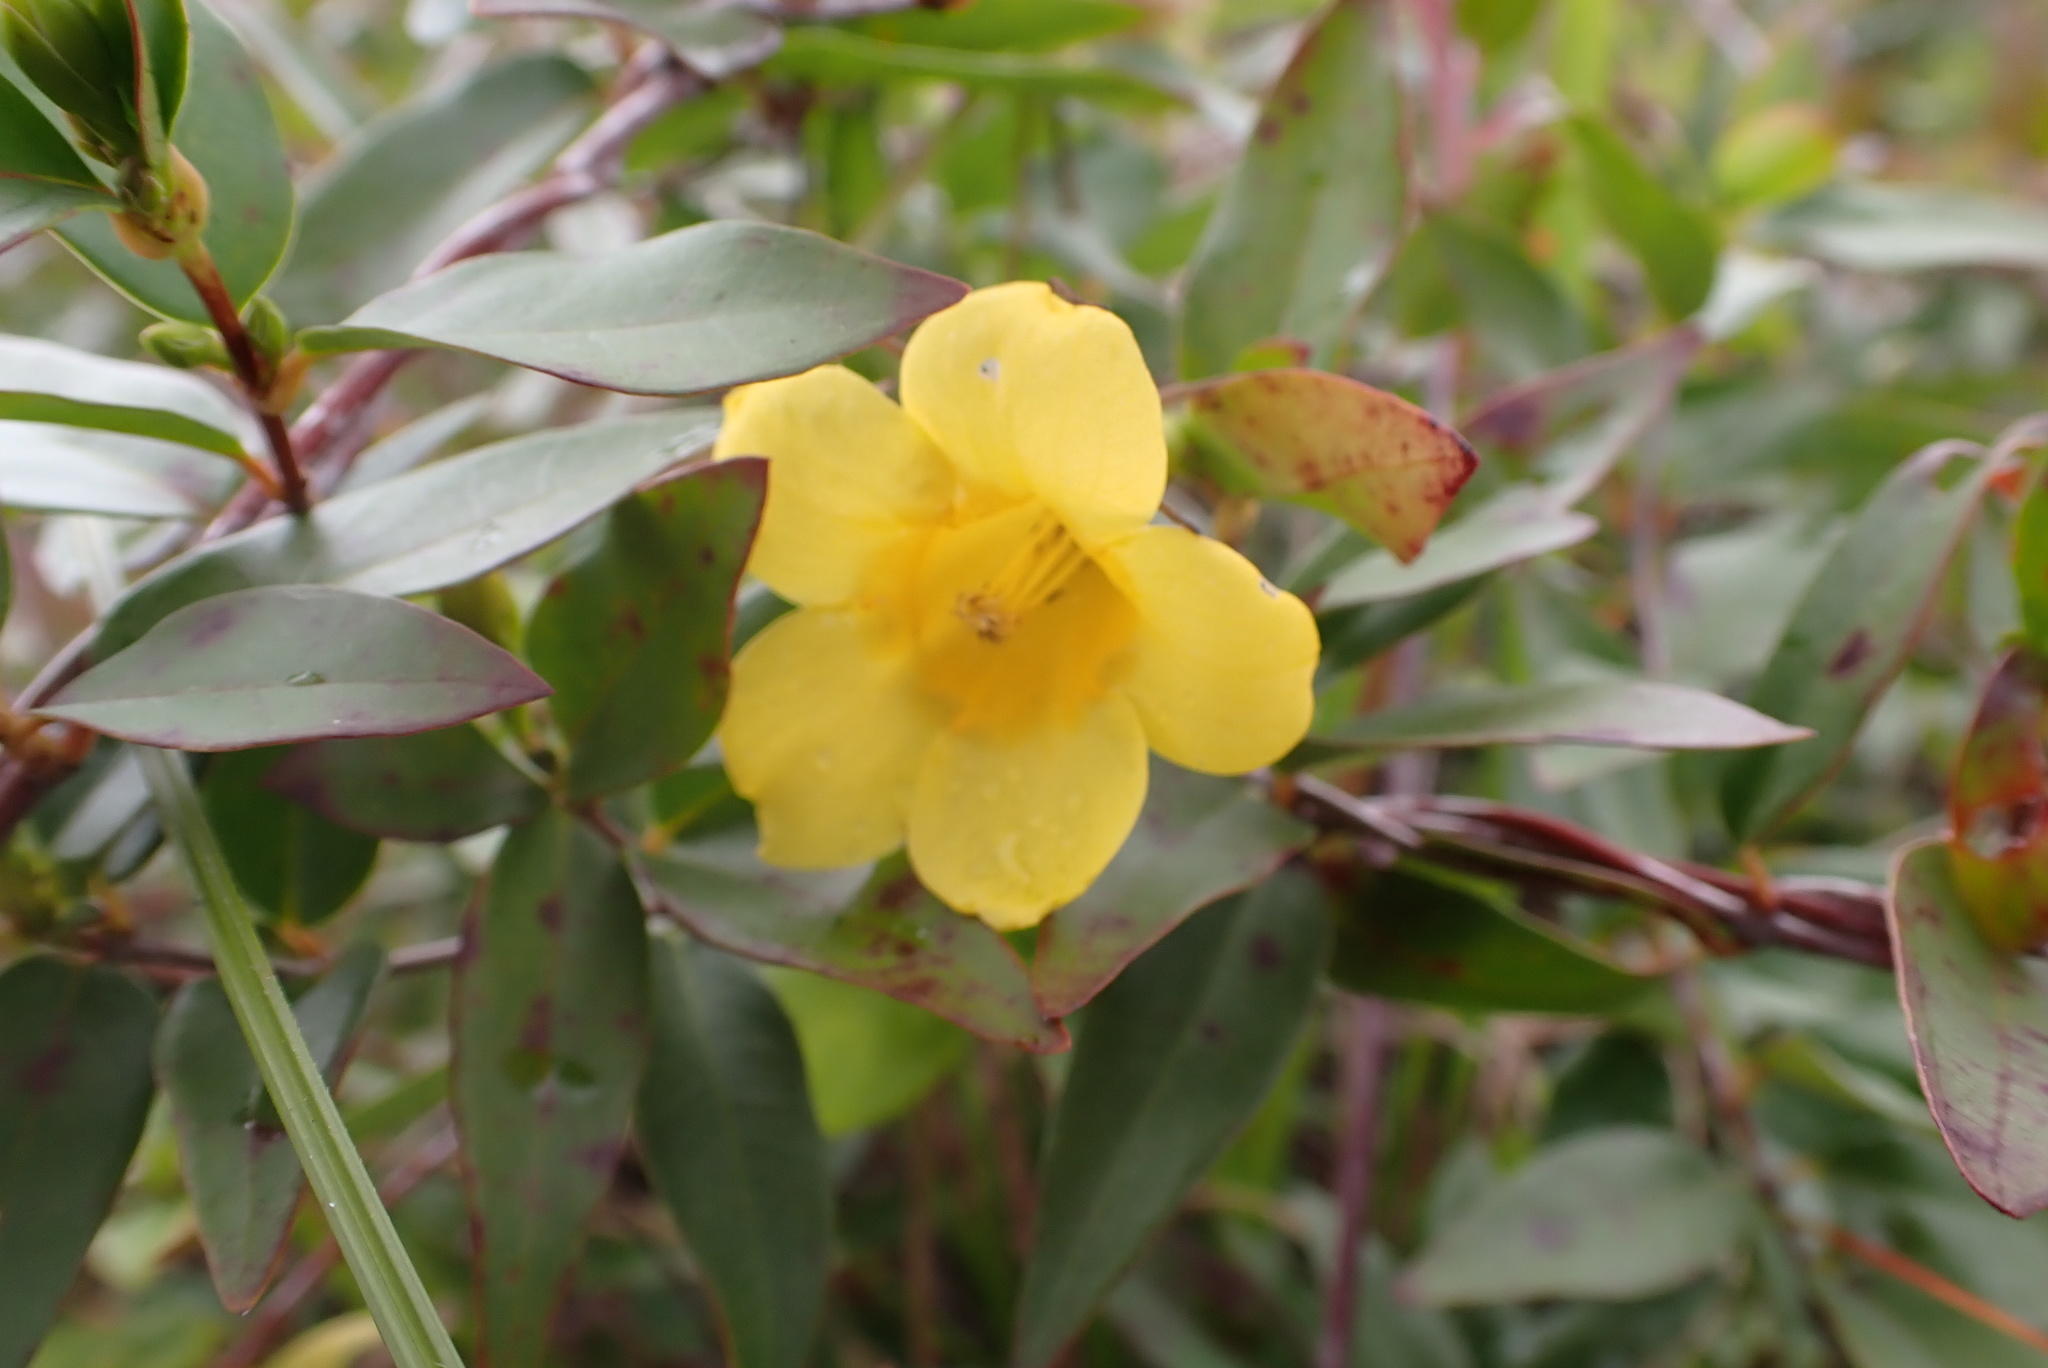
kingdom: Plantae
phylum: Tracheophyta
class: Magnoliopsida
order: Gentianales
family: Gelsemiaceae
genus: Gelsemium
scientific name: Gelsemium rankinii
